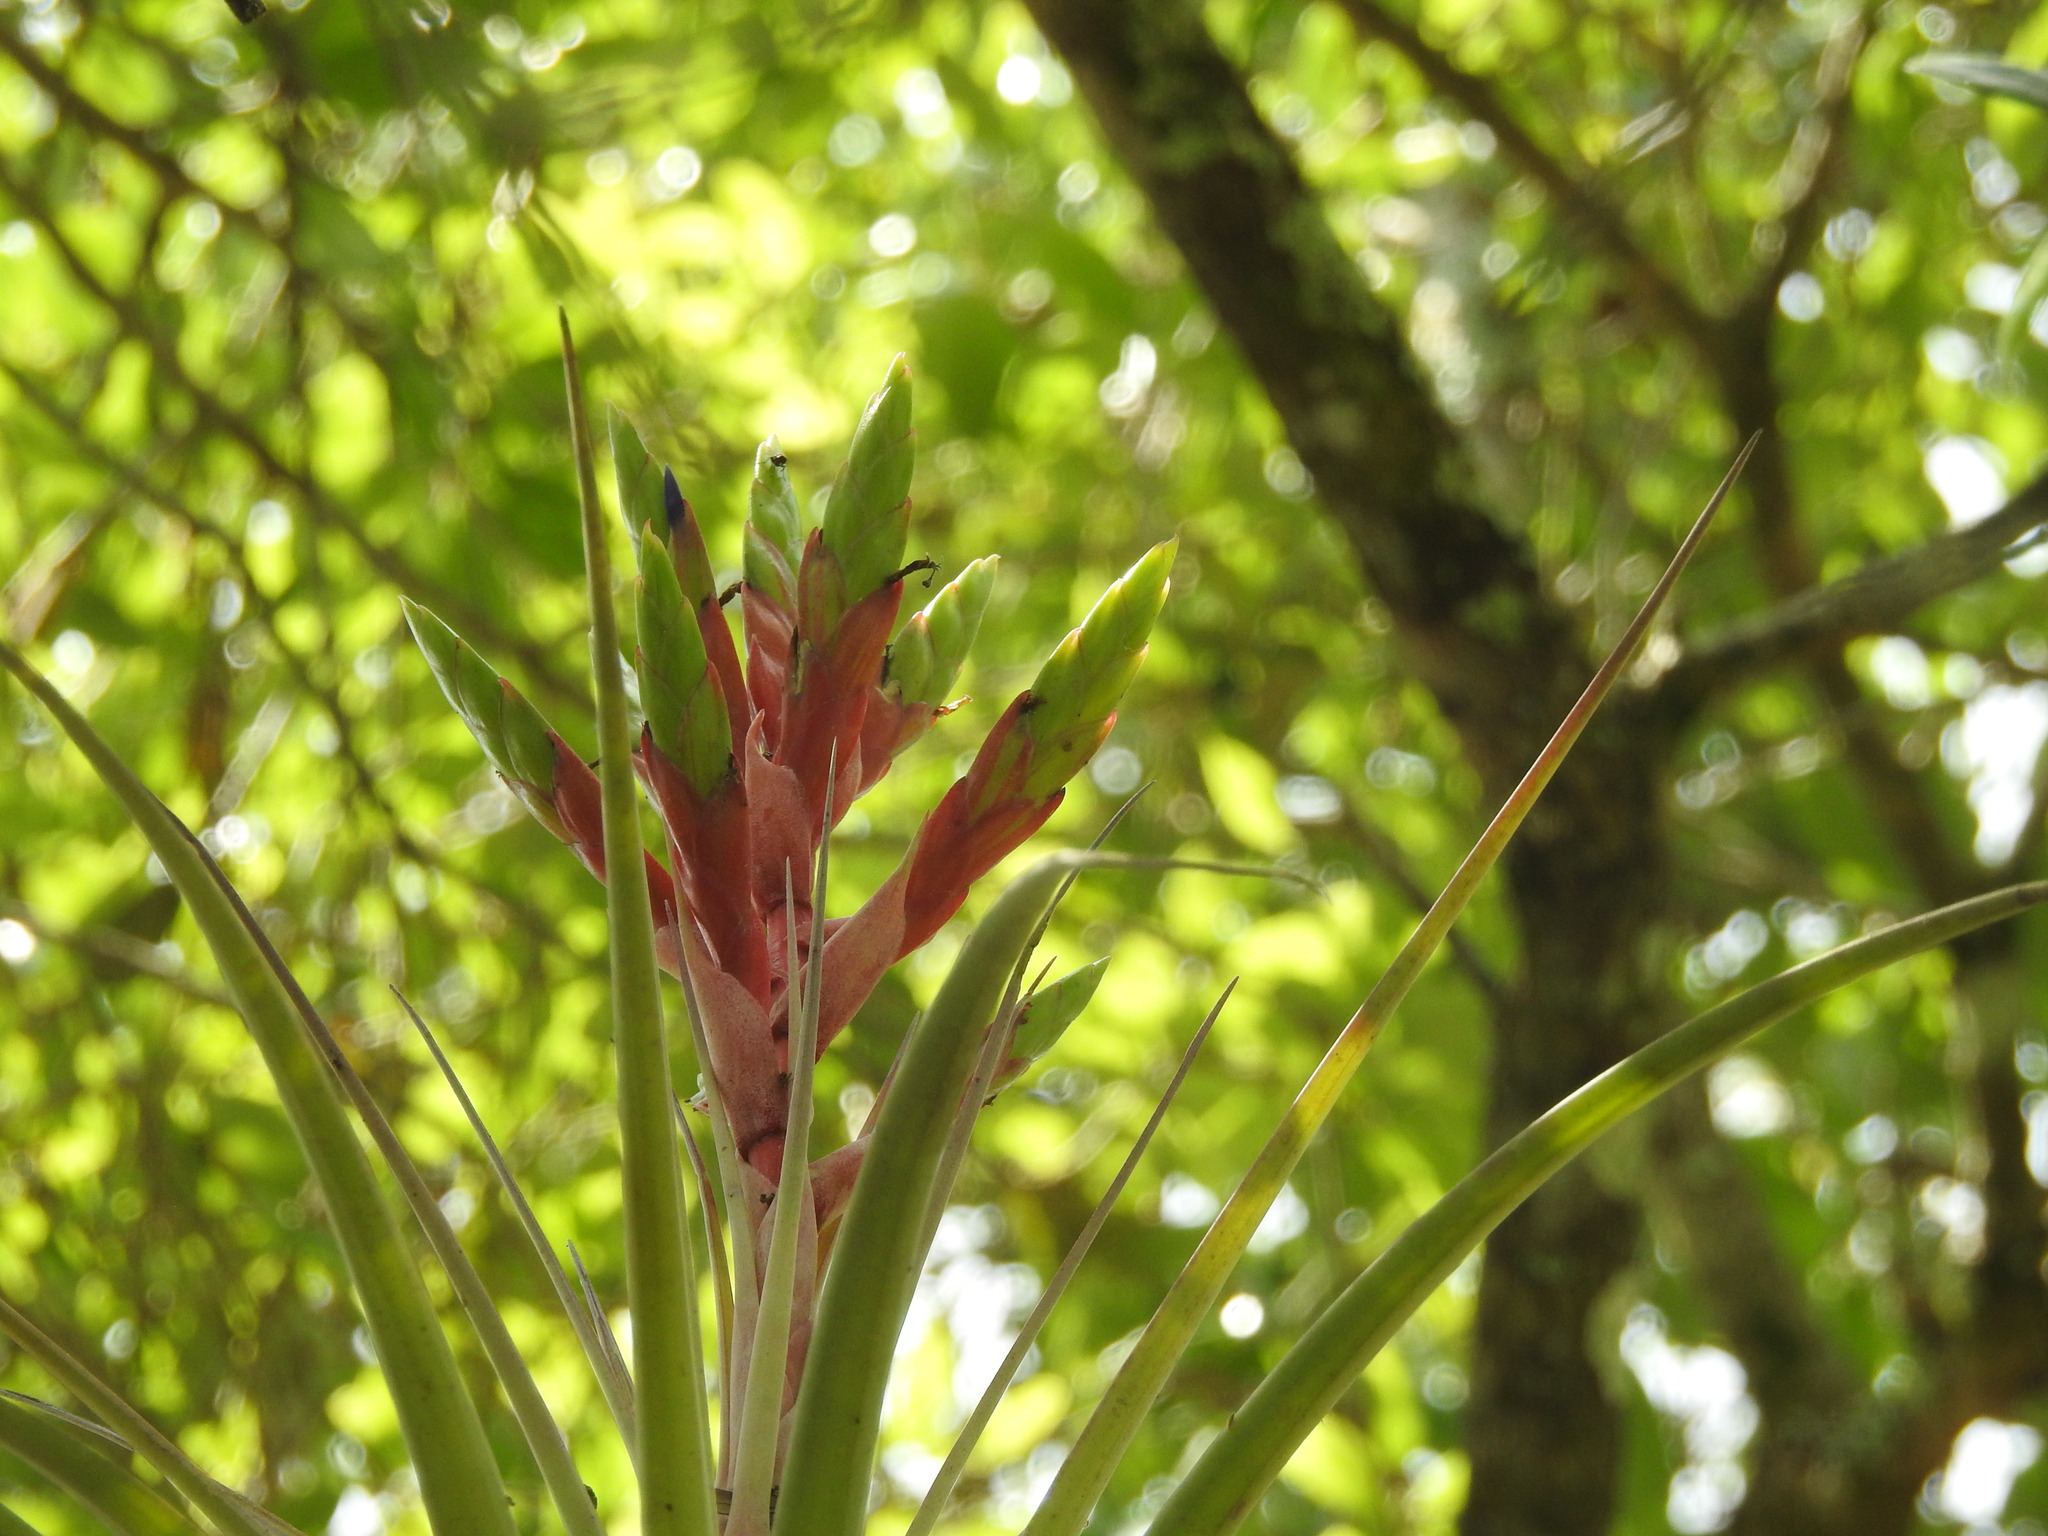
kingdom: Plantae
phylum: Tracheophyta
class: Liliopsida
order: Poales
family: Bromeliaceae
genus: Tillandsia
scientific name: Tillandsia fasciculata
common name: Giant airplant
